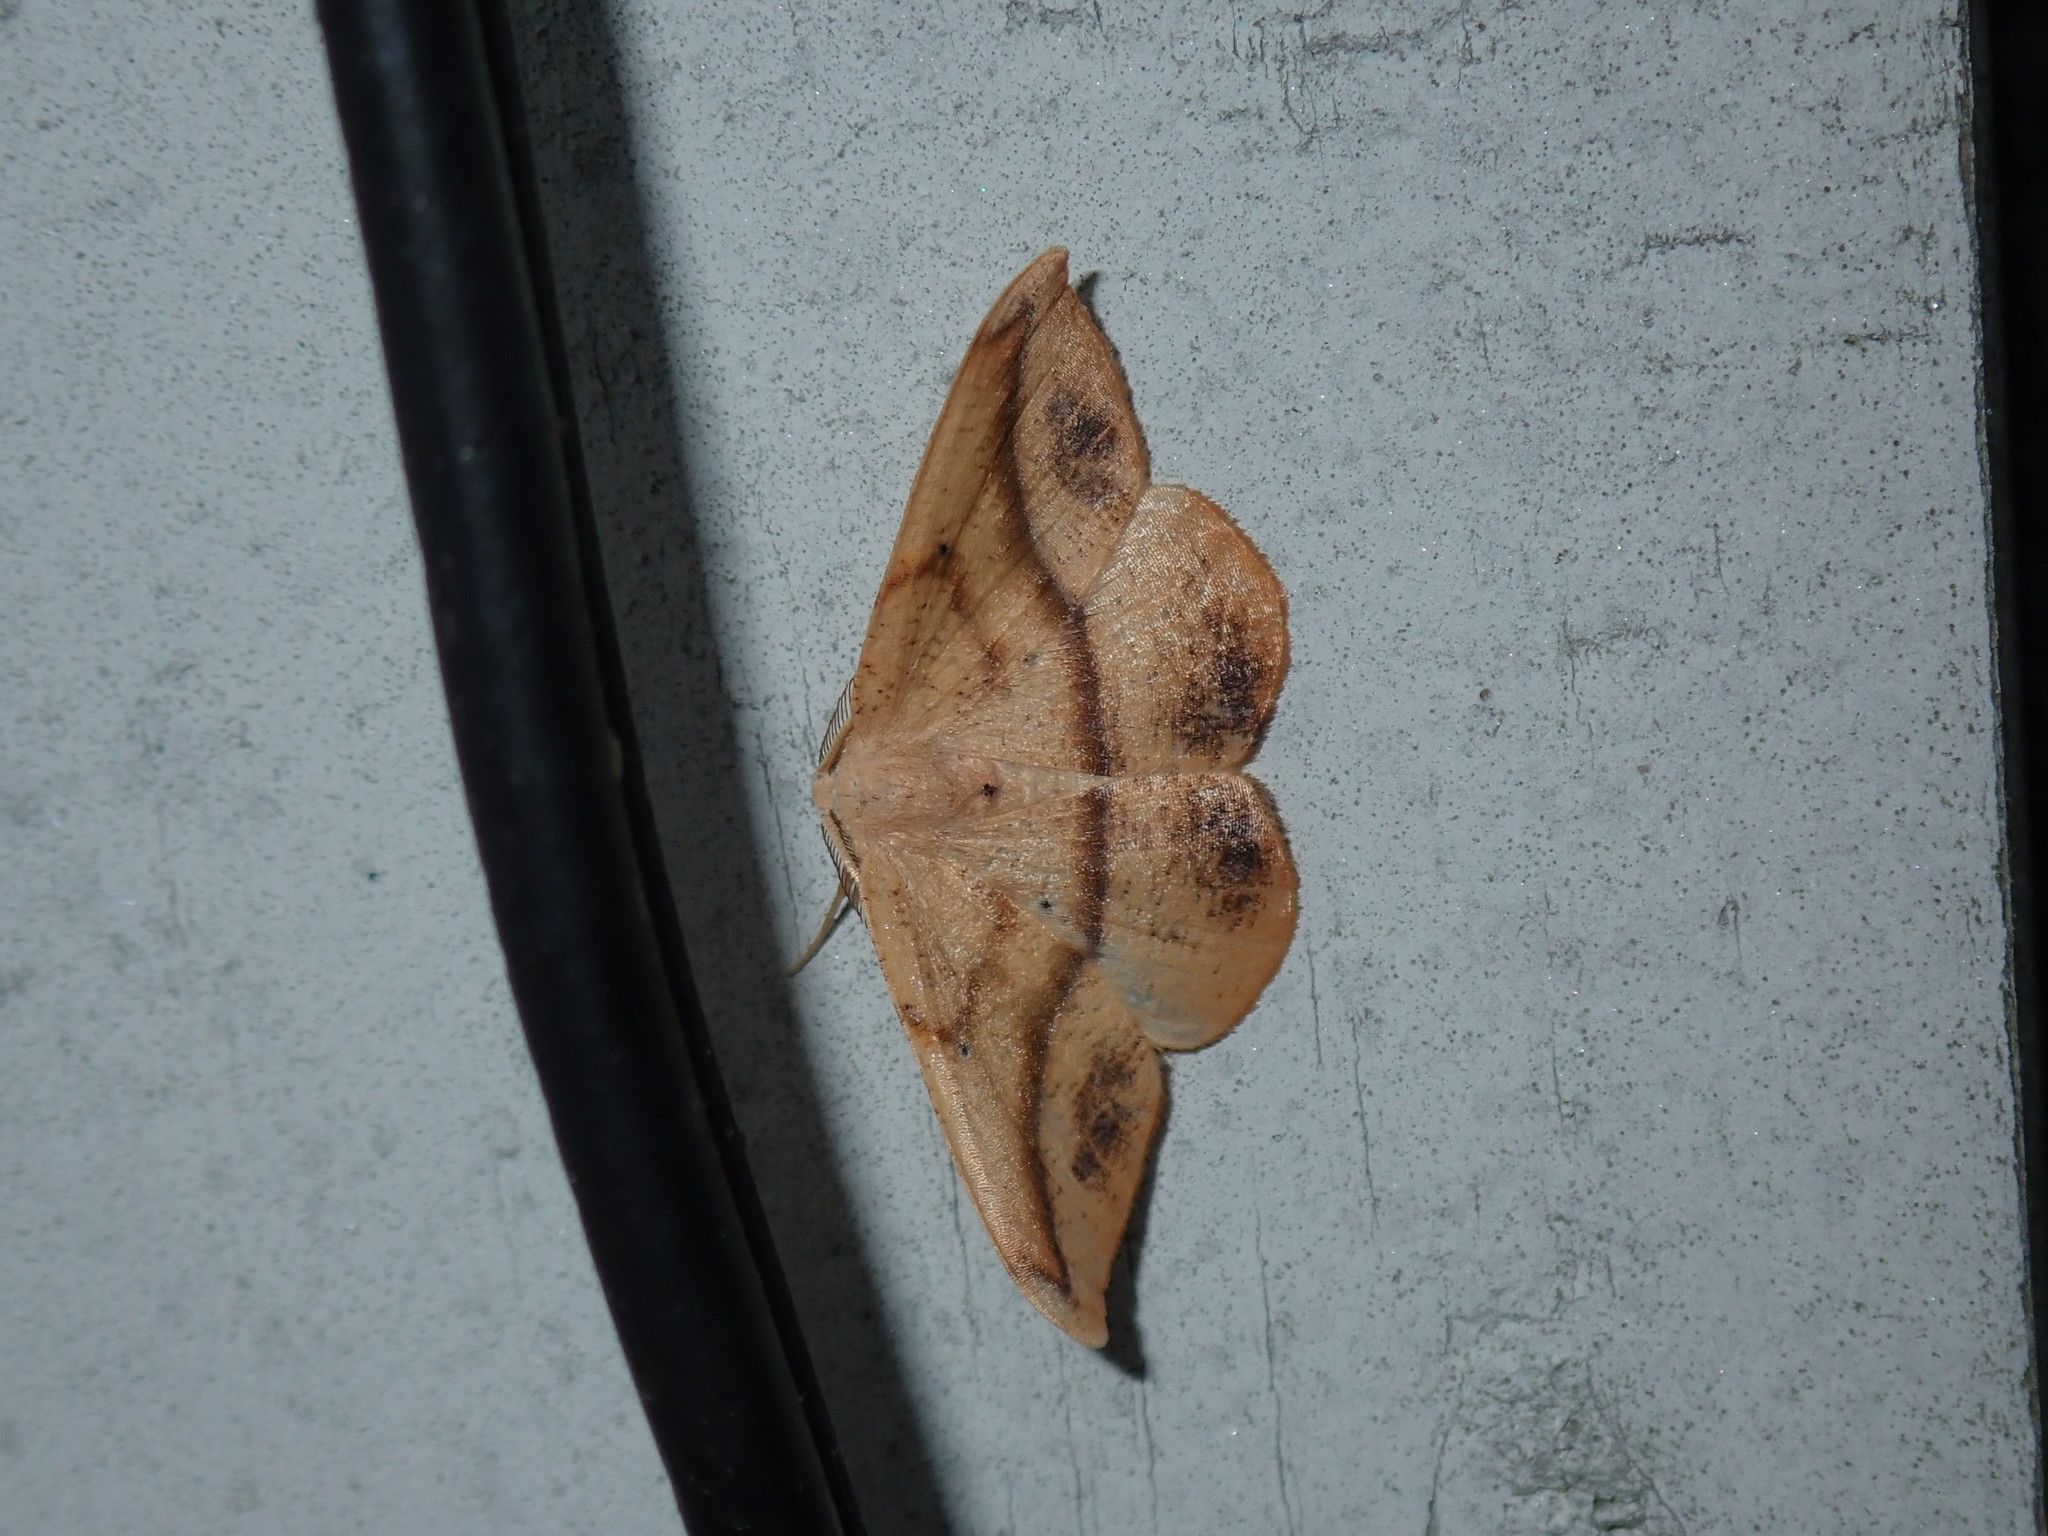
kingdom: Animalia
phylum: Arthropoda
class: Insecta
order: Lepidoptera
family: Geometridae
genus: Patalene
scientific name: Patalene olyzonaria
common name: Juniper geometer moth
